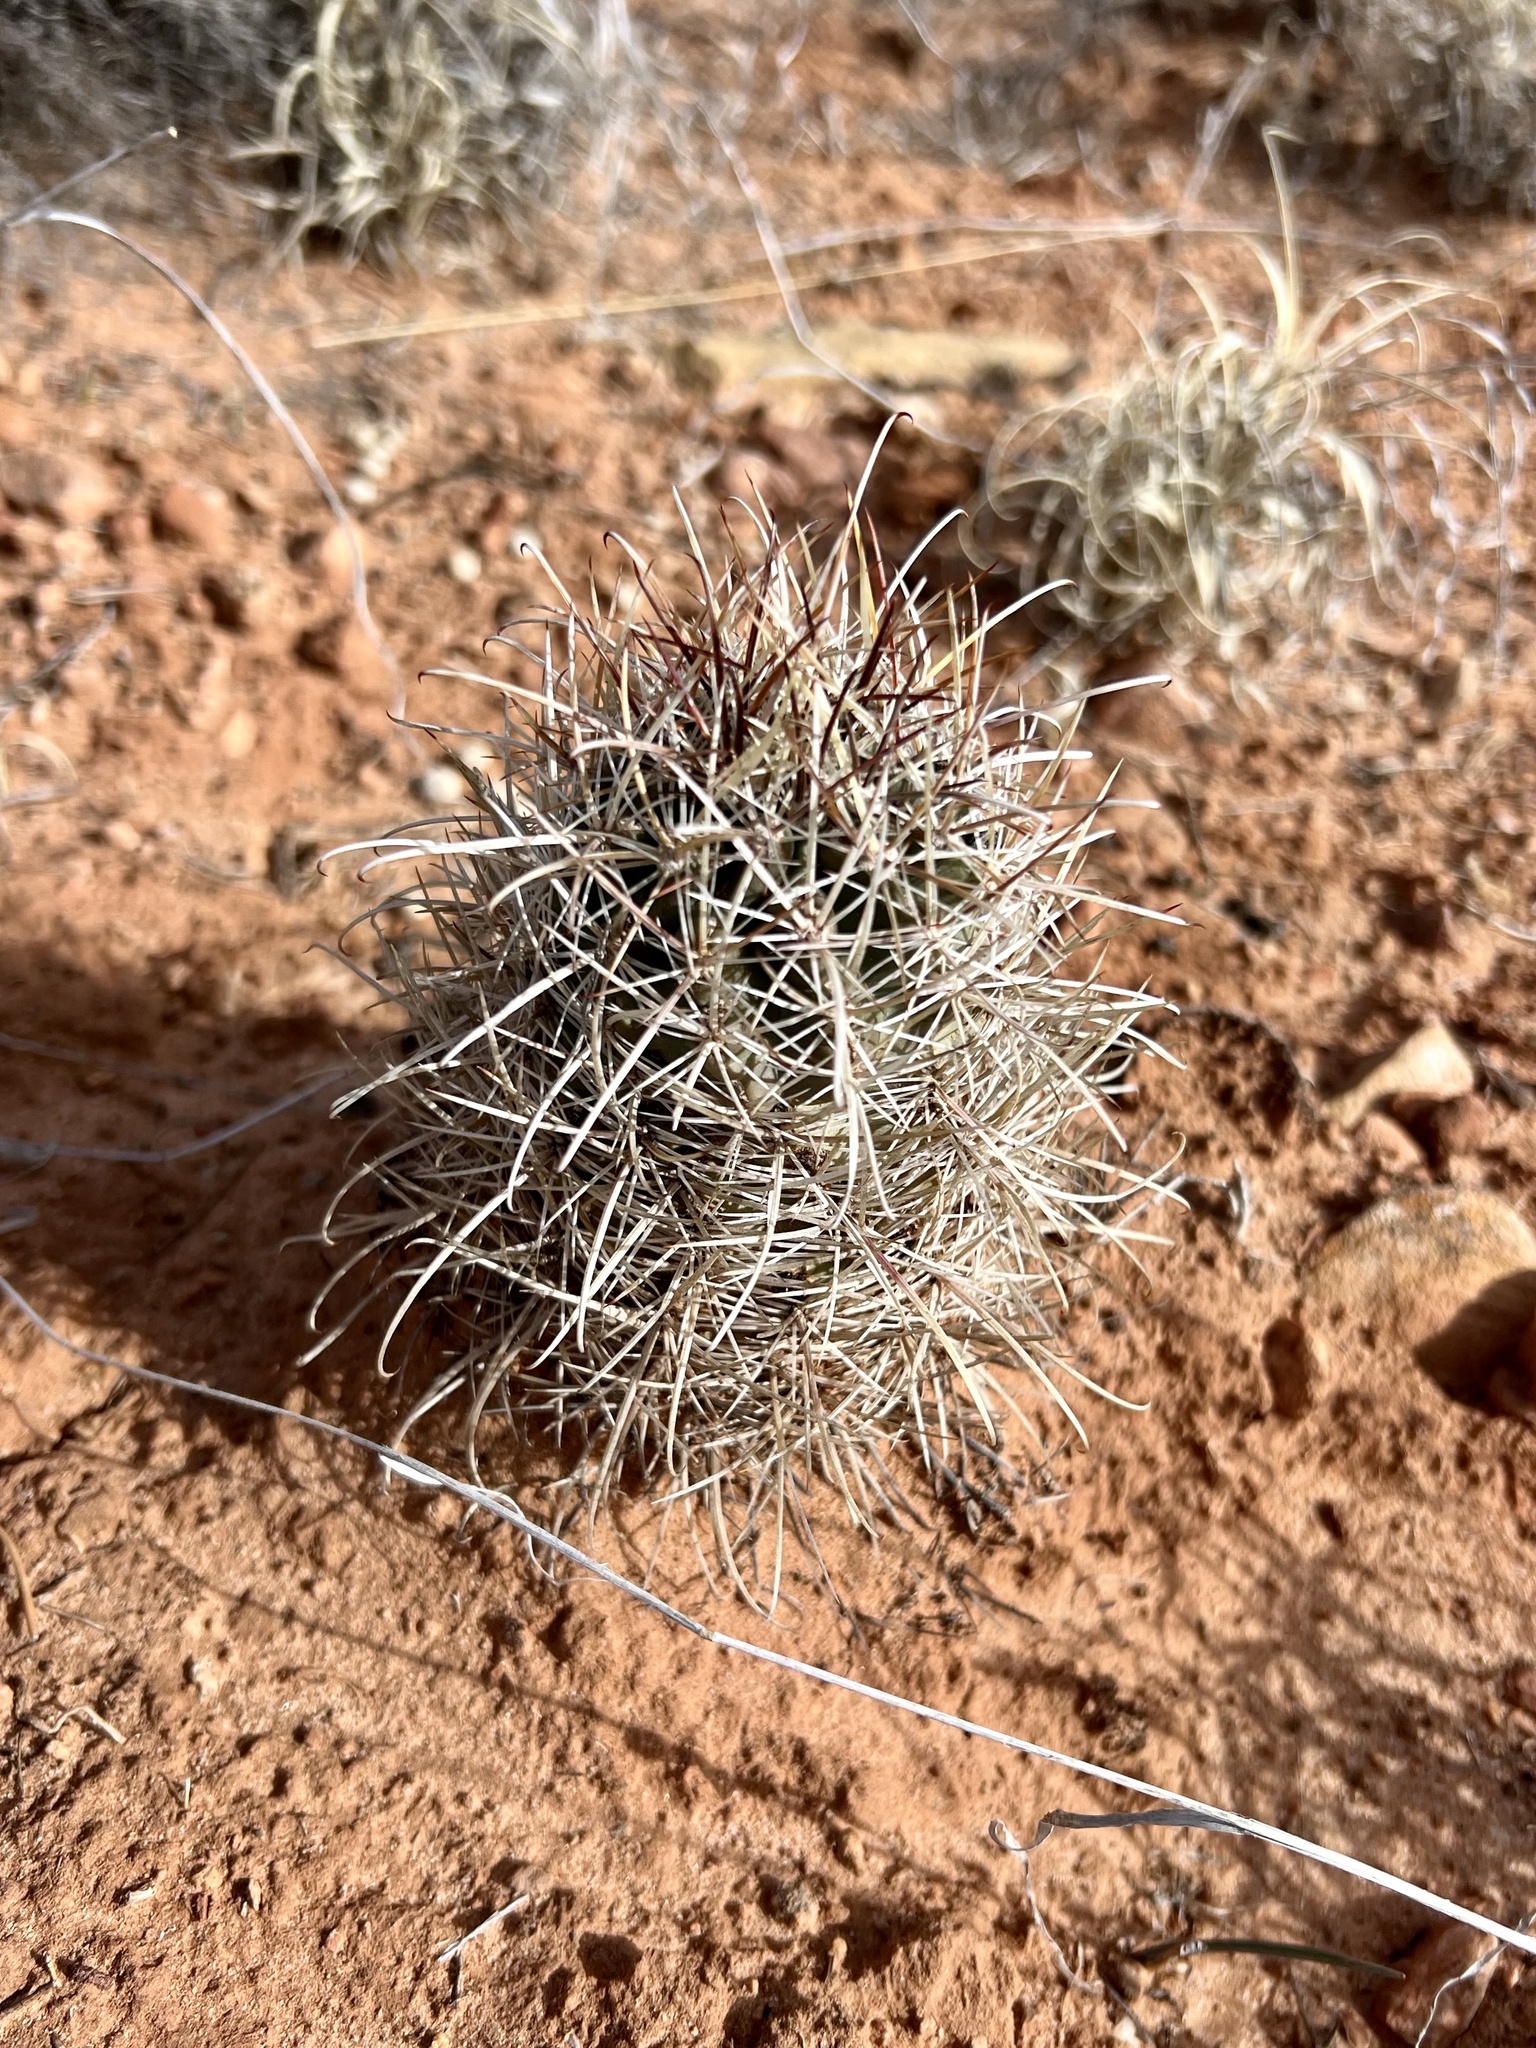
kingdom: Plantae
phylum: Tracheophyta
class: Magnoliopsida
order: Caryophyllales
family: Cactaceae
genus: Sclerocactus
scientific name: Sclerocactus parviflorus
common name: Small-flower fishhook cactus
